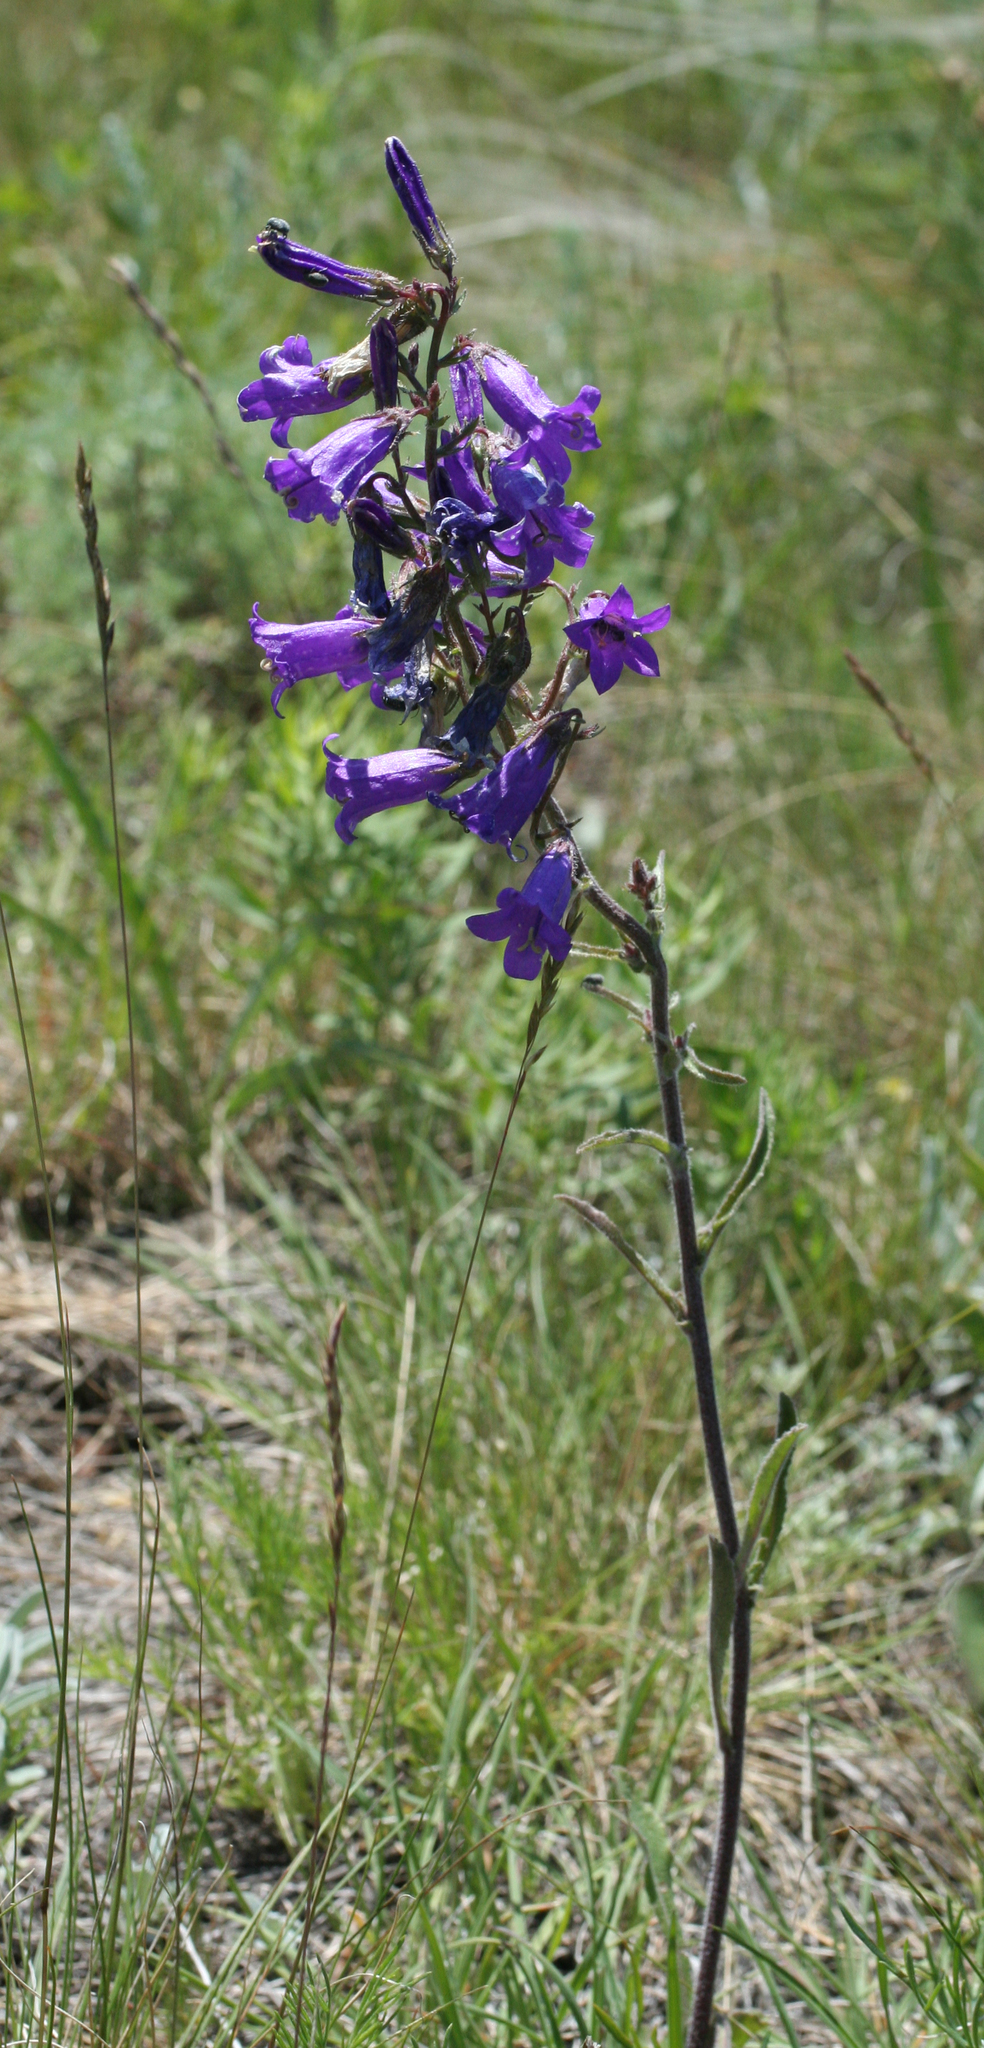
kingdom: Plantae
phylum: Tracheophyta
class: Magnoliopsida
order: Asterales
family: Campanulaceae
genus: Campanula
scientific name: Campanula sibirica
